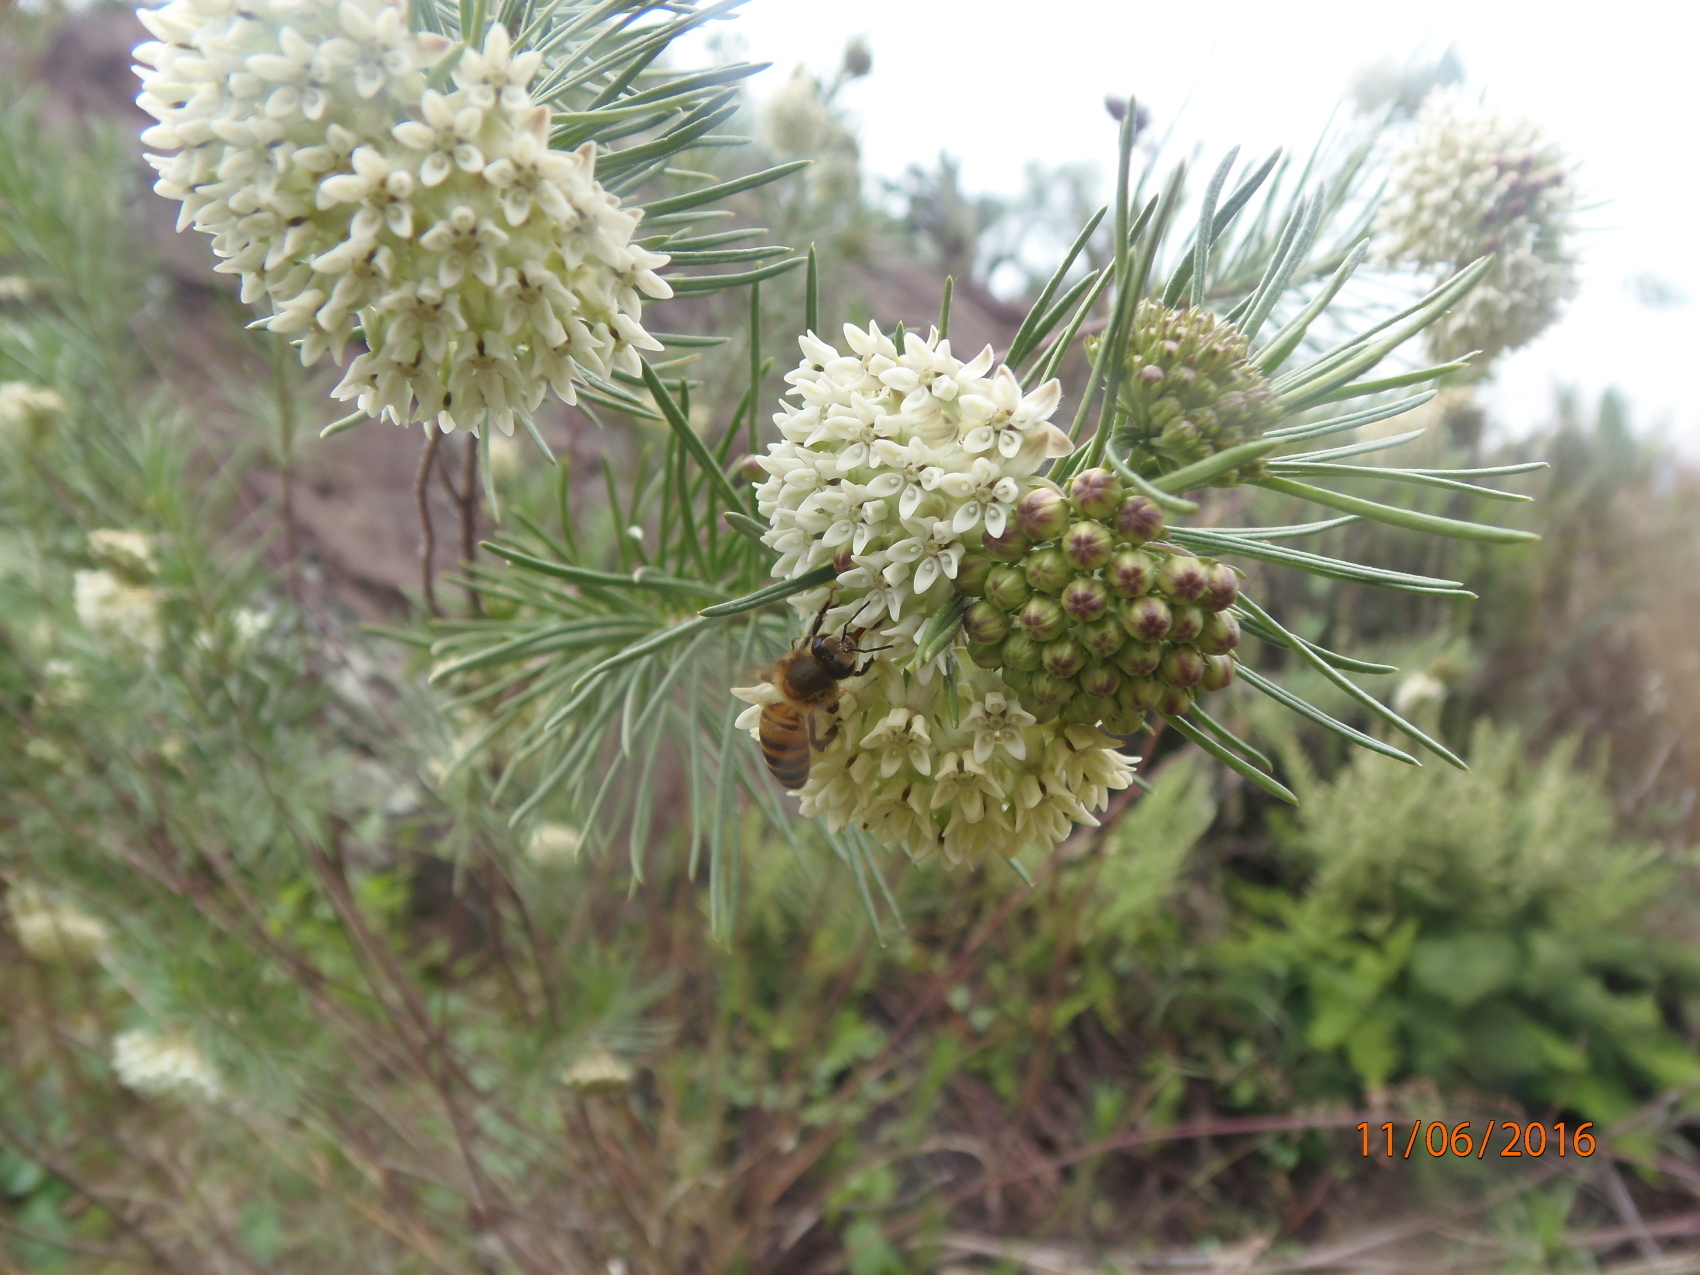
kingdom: Plantae
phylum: Tracheophyta
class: Magnoliopsida
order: Gentianales
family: Apocynaceae
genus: Asclepias
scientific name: Asclepias linaria
